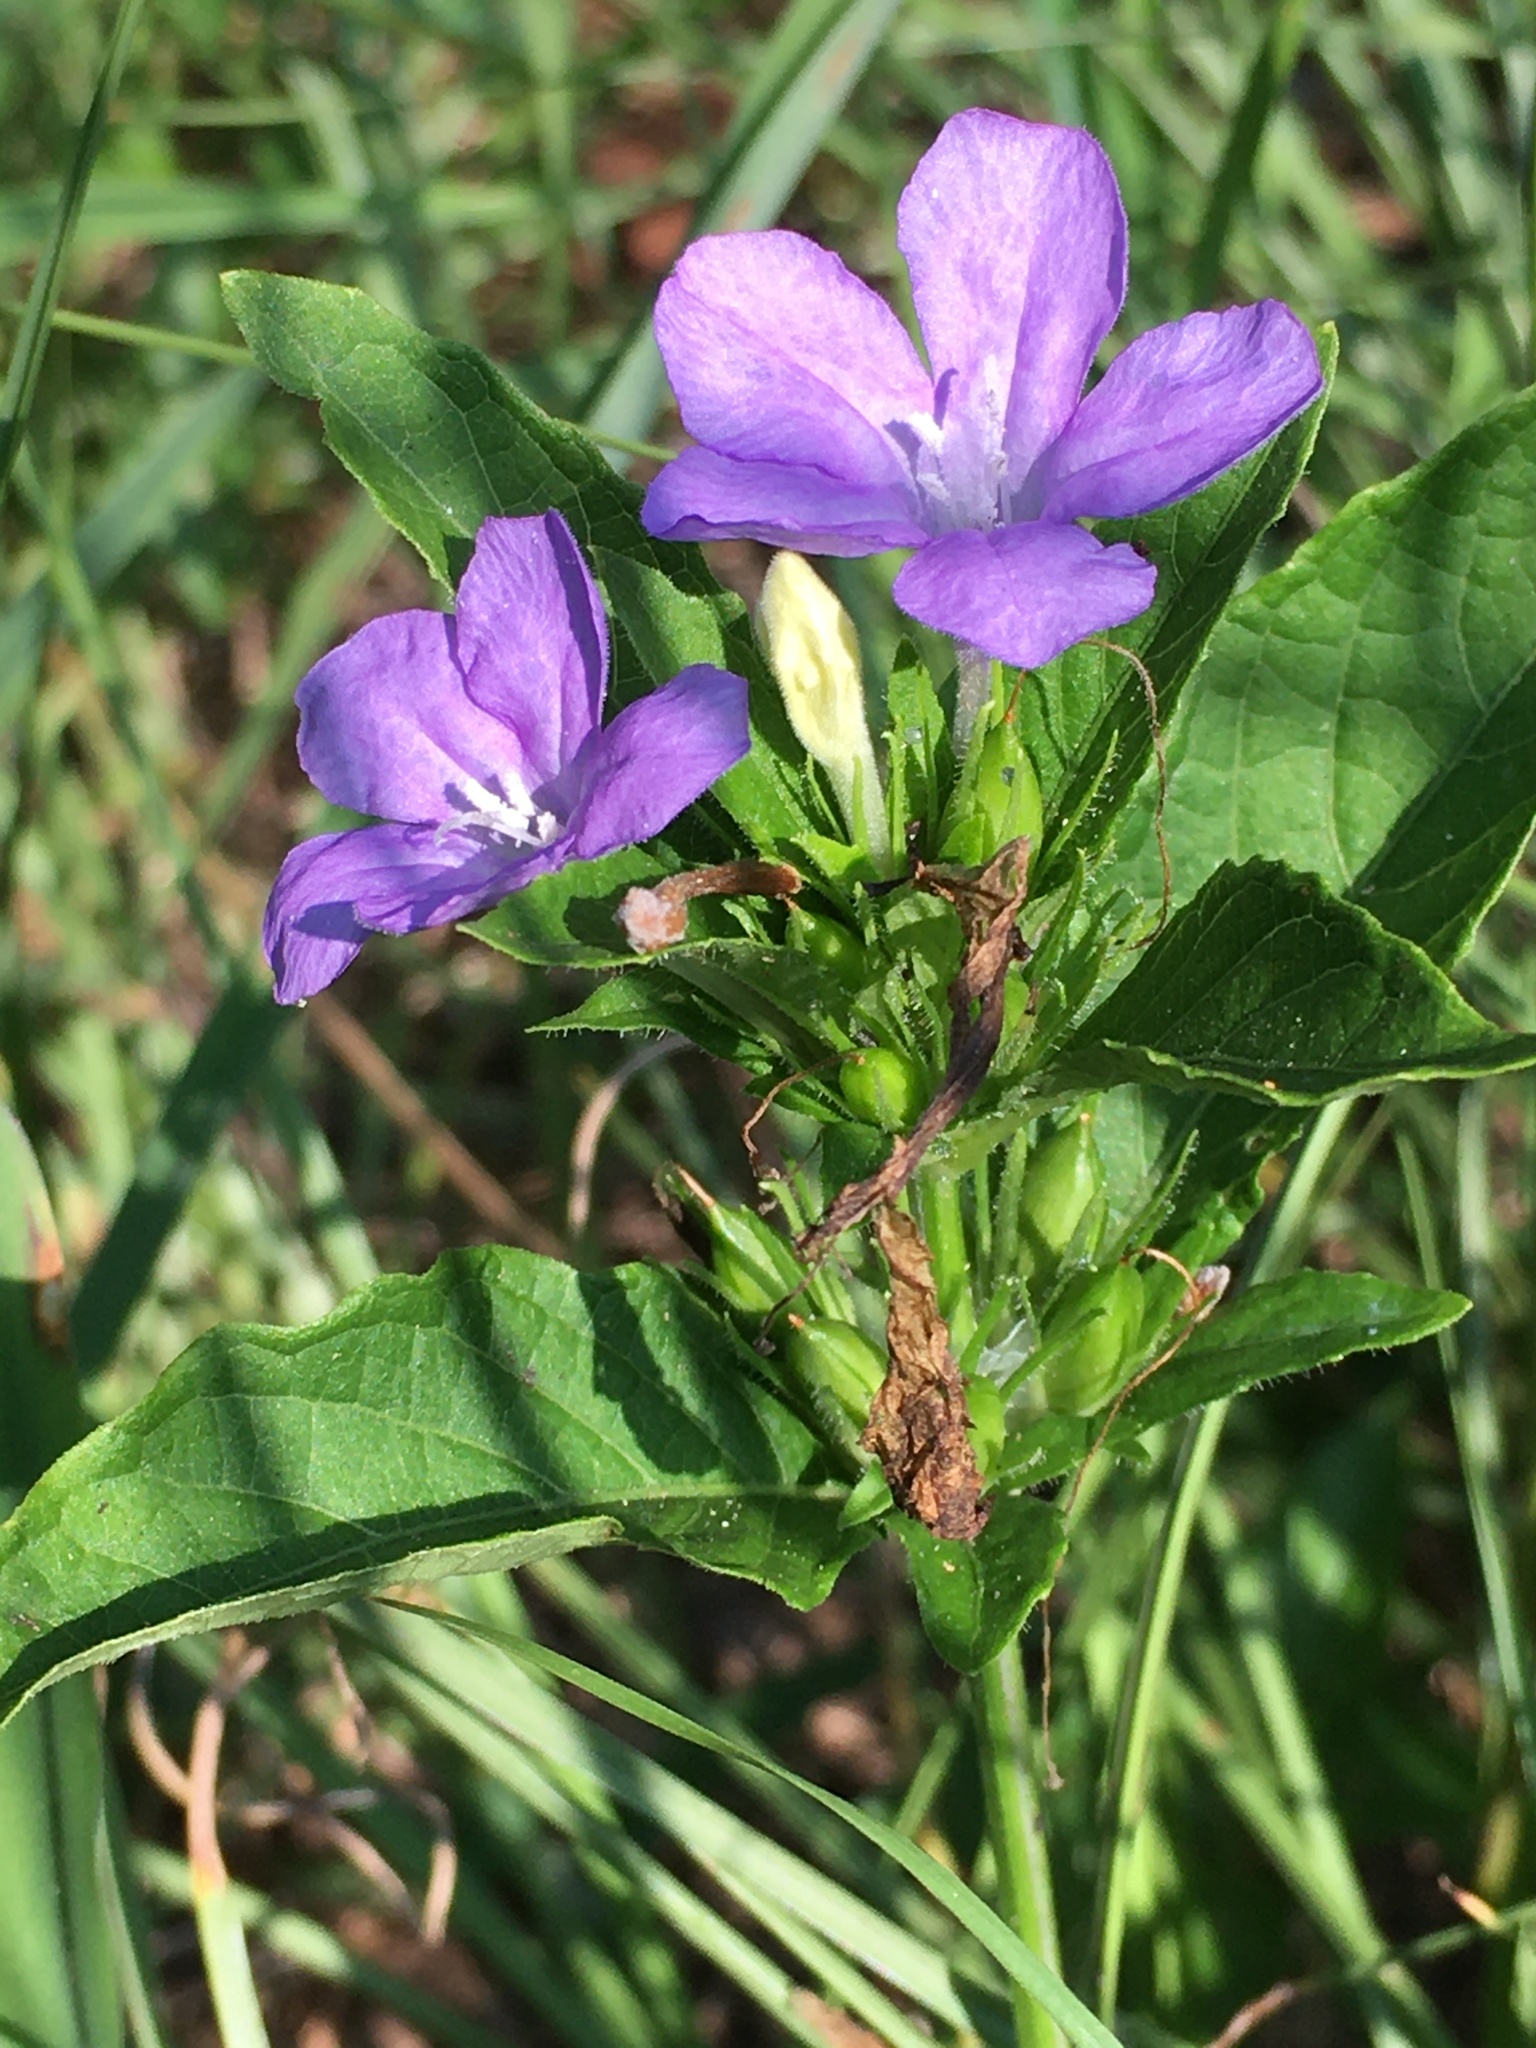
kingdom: Plantae
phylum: Tracheophyta
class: Magnoliopsida
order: Lamiales
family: Acanthaceae
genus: Ruellia
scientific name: Ruellia caroliniensis
